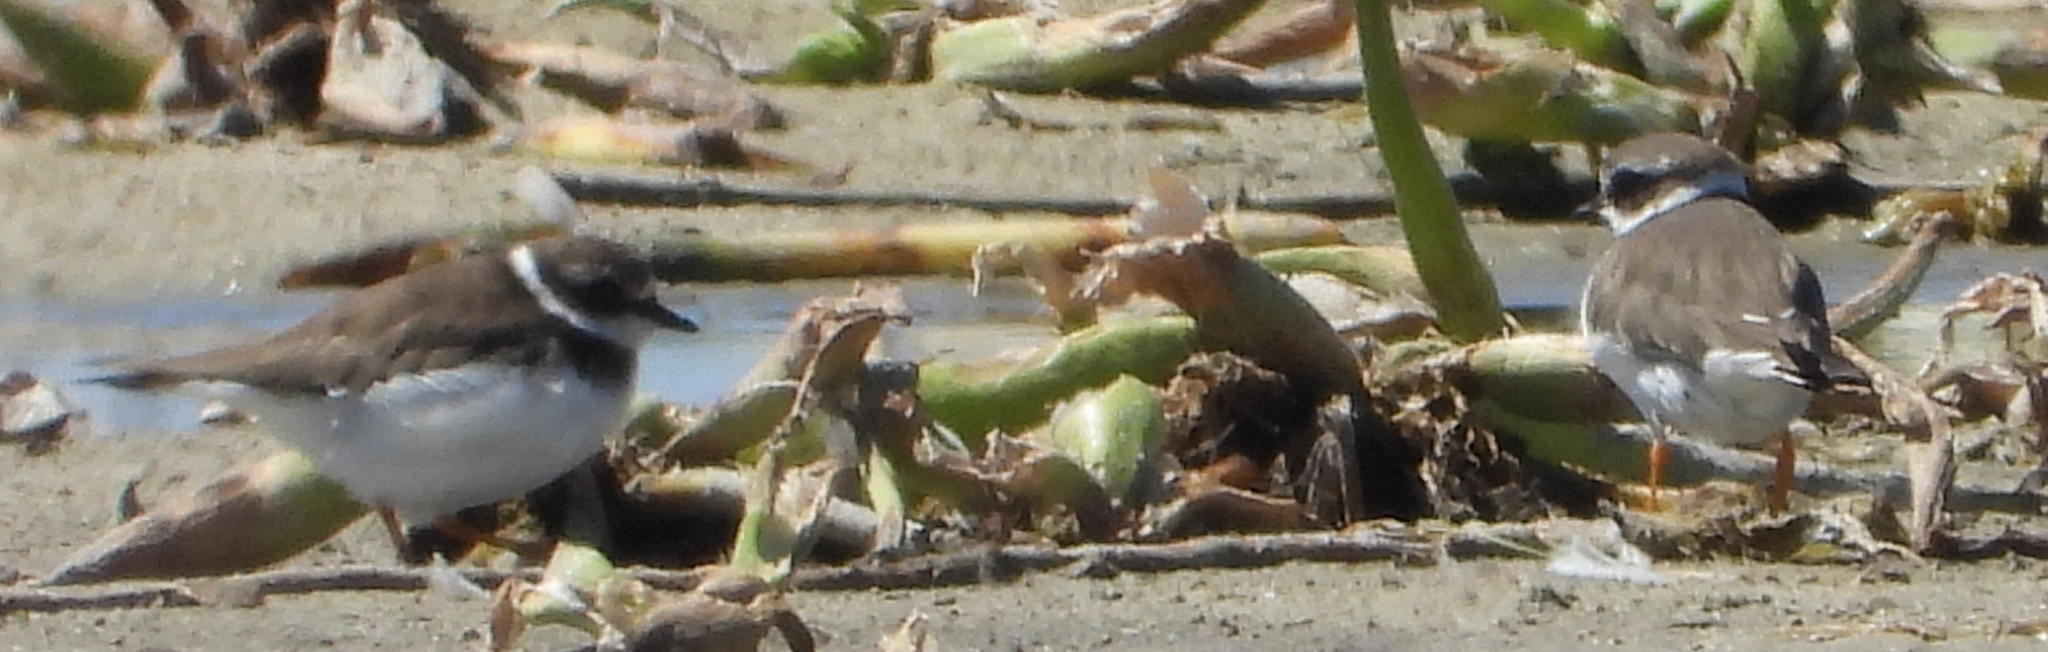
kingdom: Animalia
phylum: Chordata
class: Aves
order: Charadriiformes
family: Charadriidae
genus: Charadrius
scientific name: Charadrius hiaticula
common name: Common ringed plover
